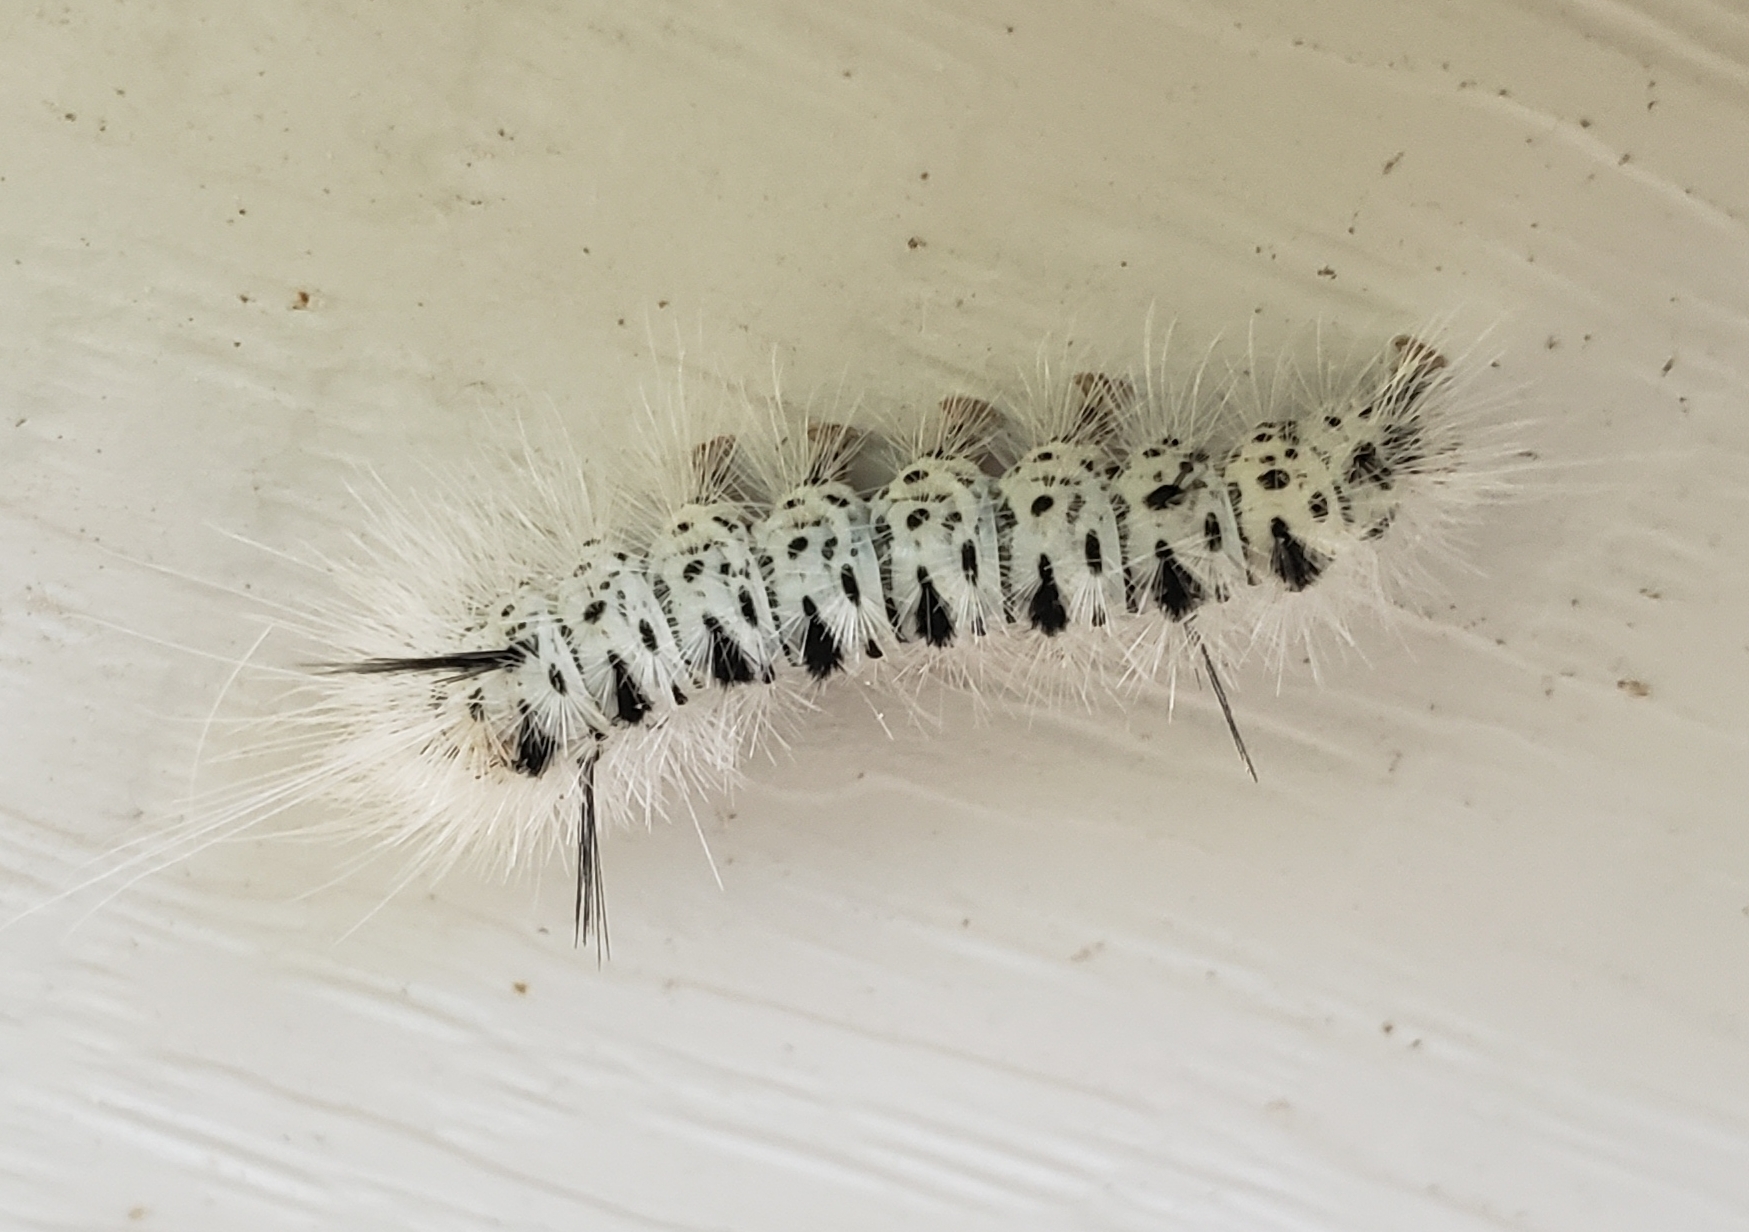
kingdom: Animalia
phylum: Arthropoda
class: Insecta
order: Lepidoptera
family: Erebidae
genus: Lophocampa
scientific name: Lophocampa caryae
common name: Hickory tussock moth
